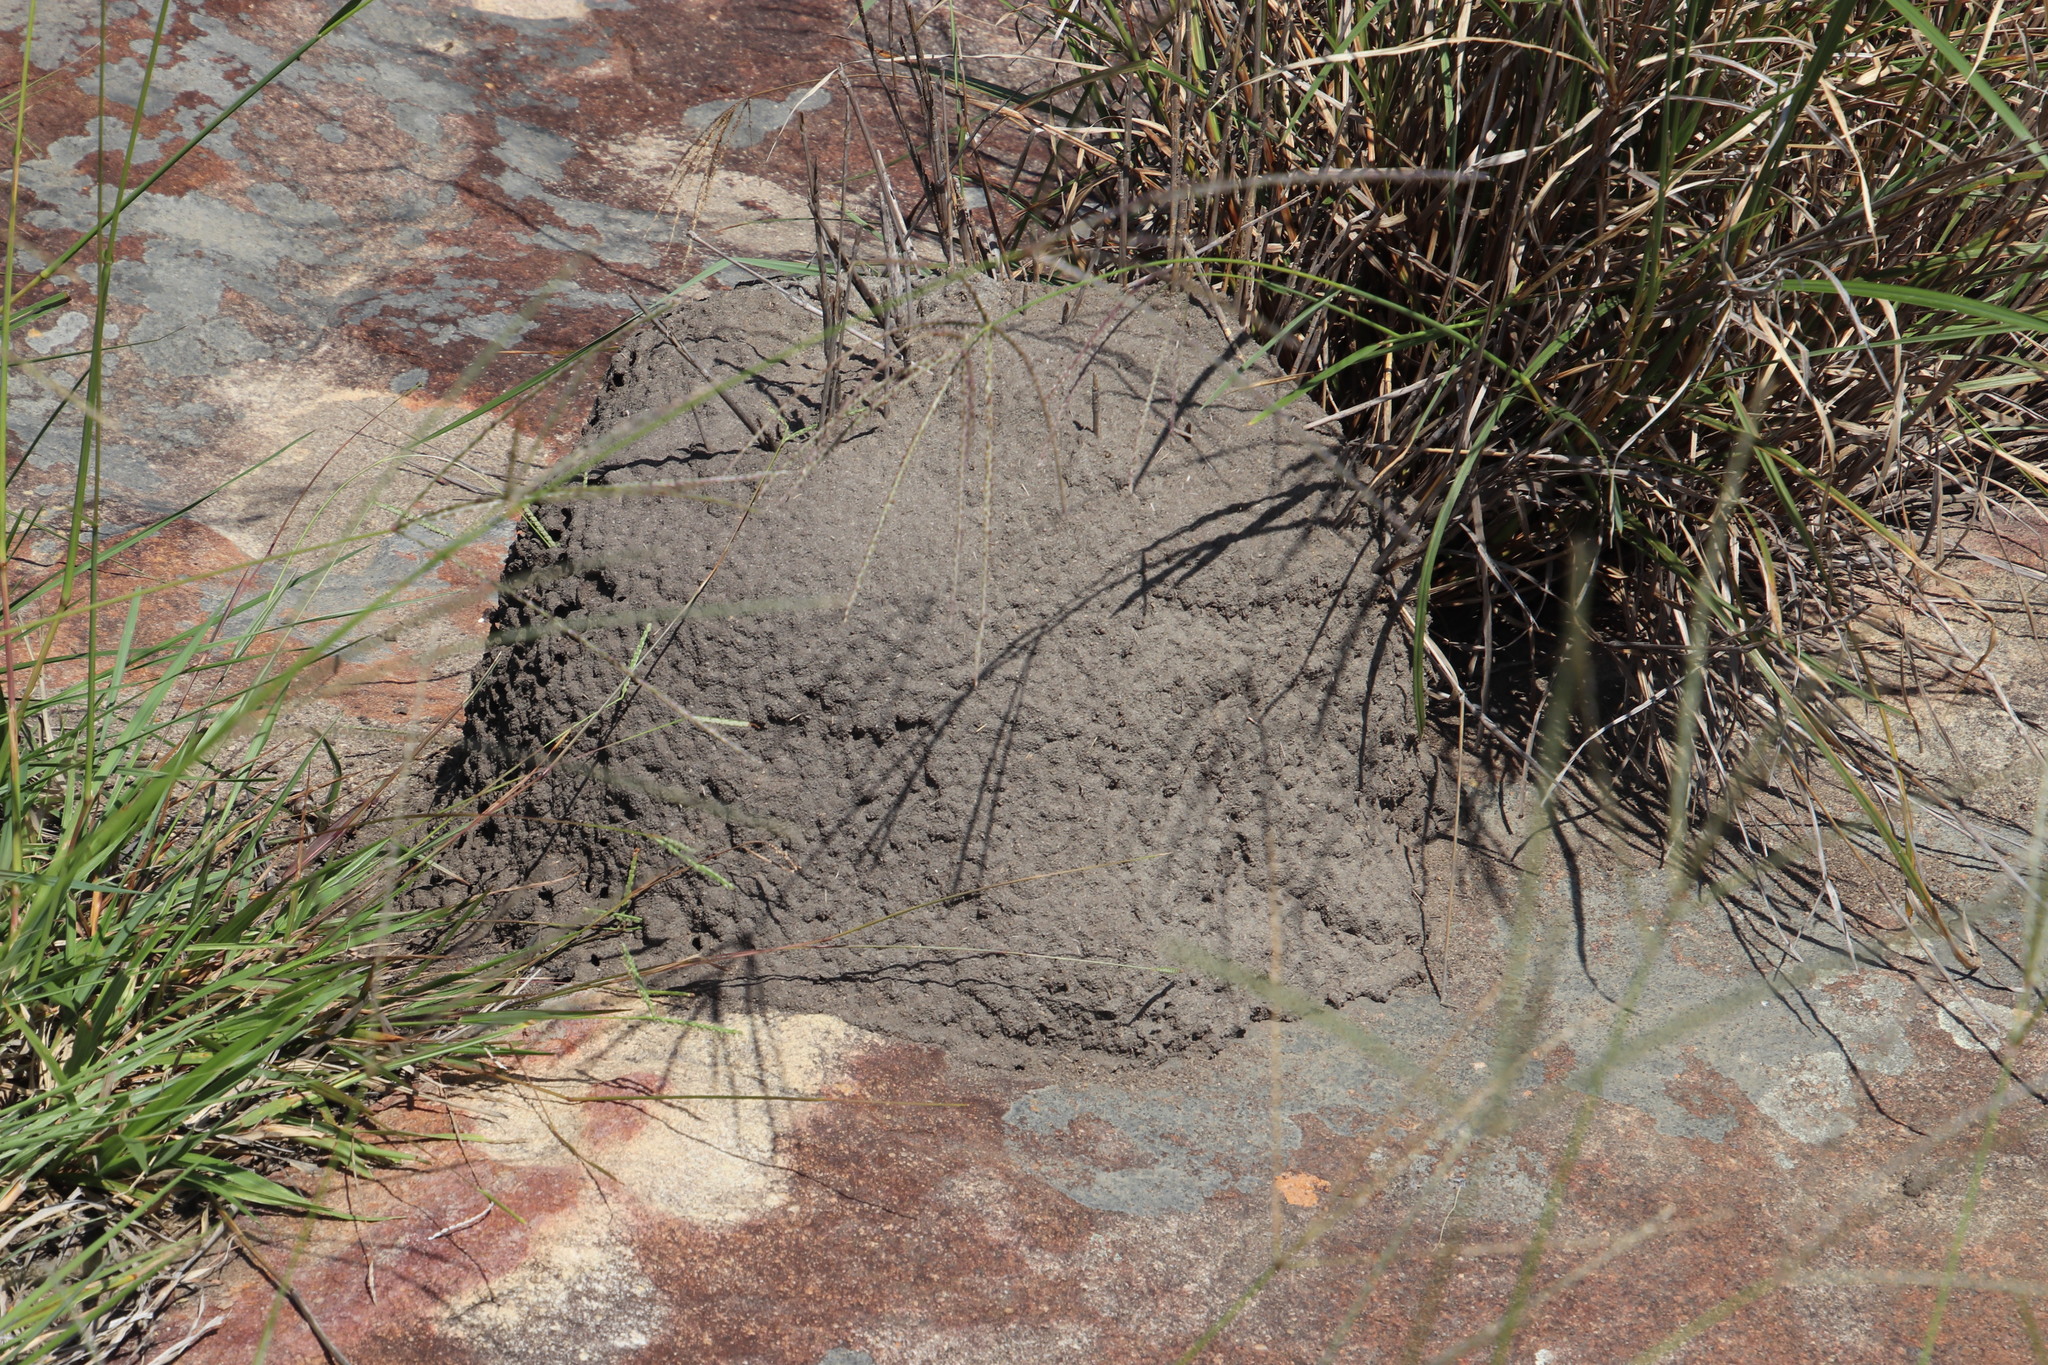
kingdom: Animalia
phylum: Arthropoda
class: Insecta
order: Blattodea
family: Termitidae
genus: Amitermes
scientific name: Amitermes hastatus
